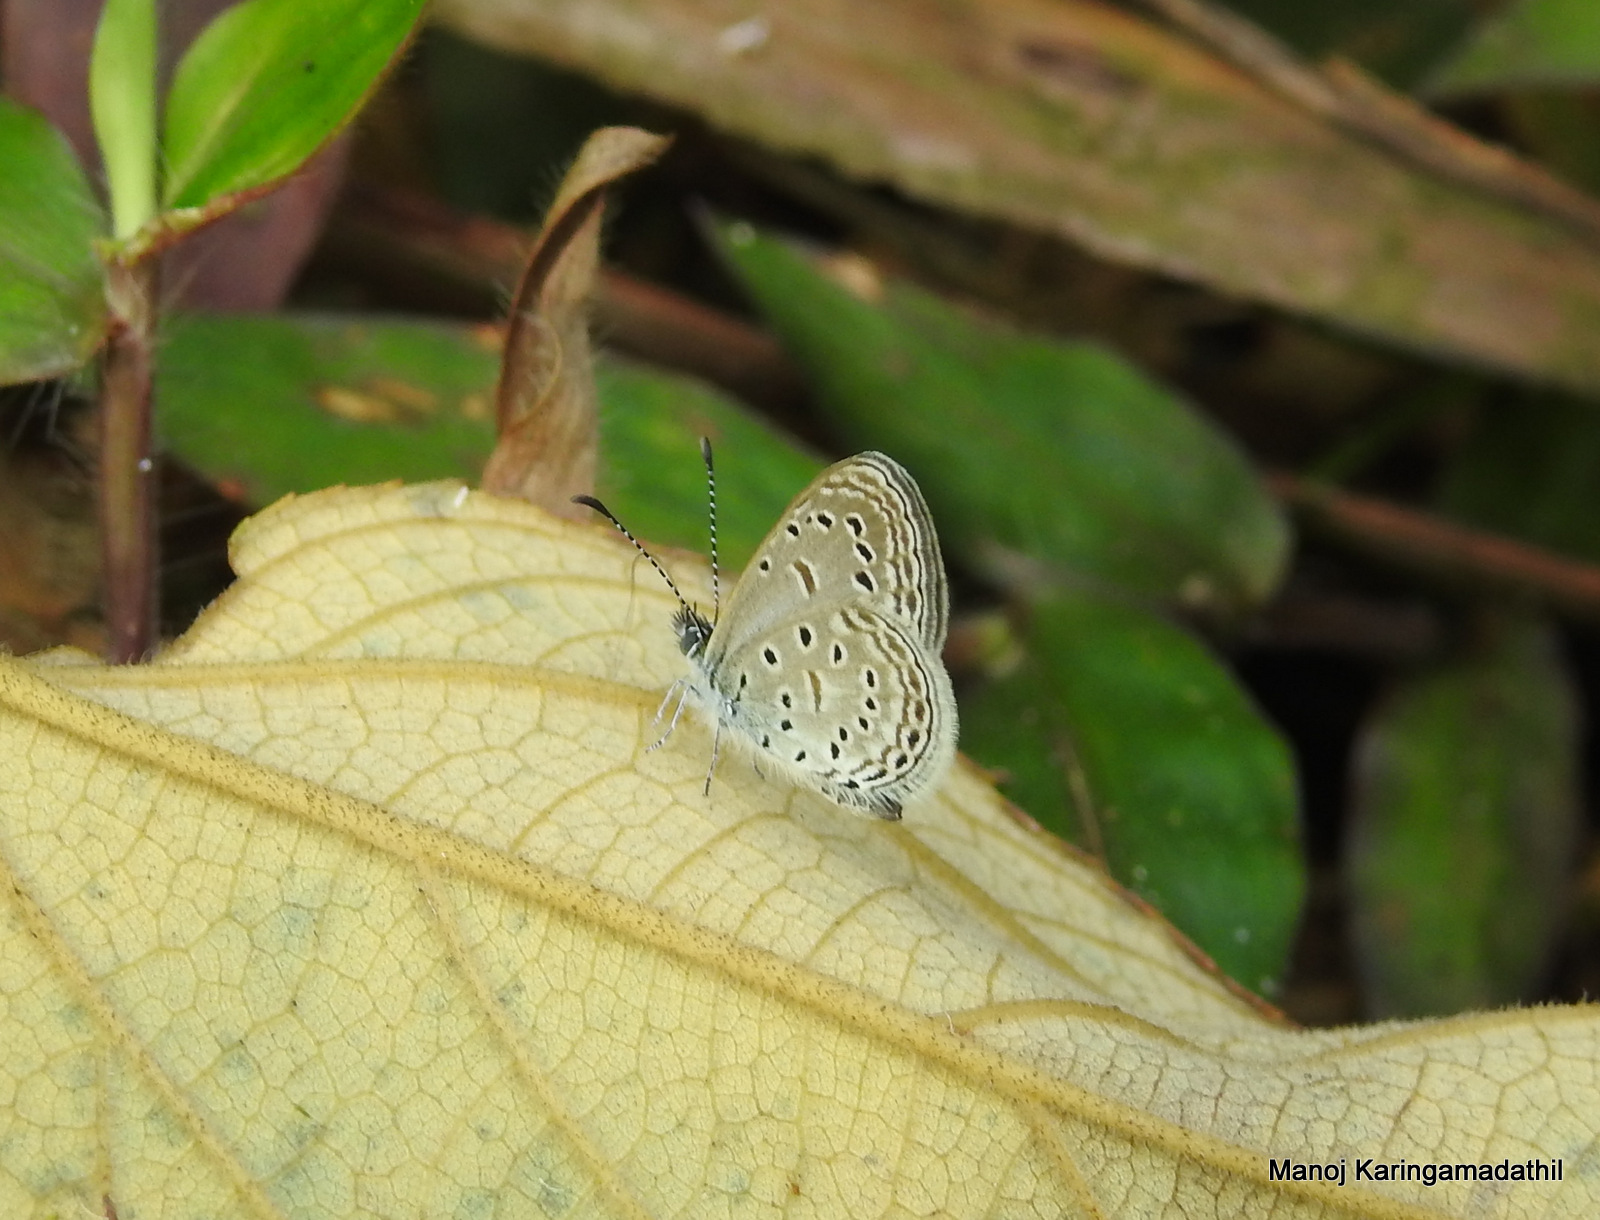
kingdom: Animalia
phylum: Arthropoda
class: Insecta
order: Lepidoptera
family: Lycaenidae
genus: Zizula
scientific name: Zizula hylax
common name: Gaika blue
